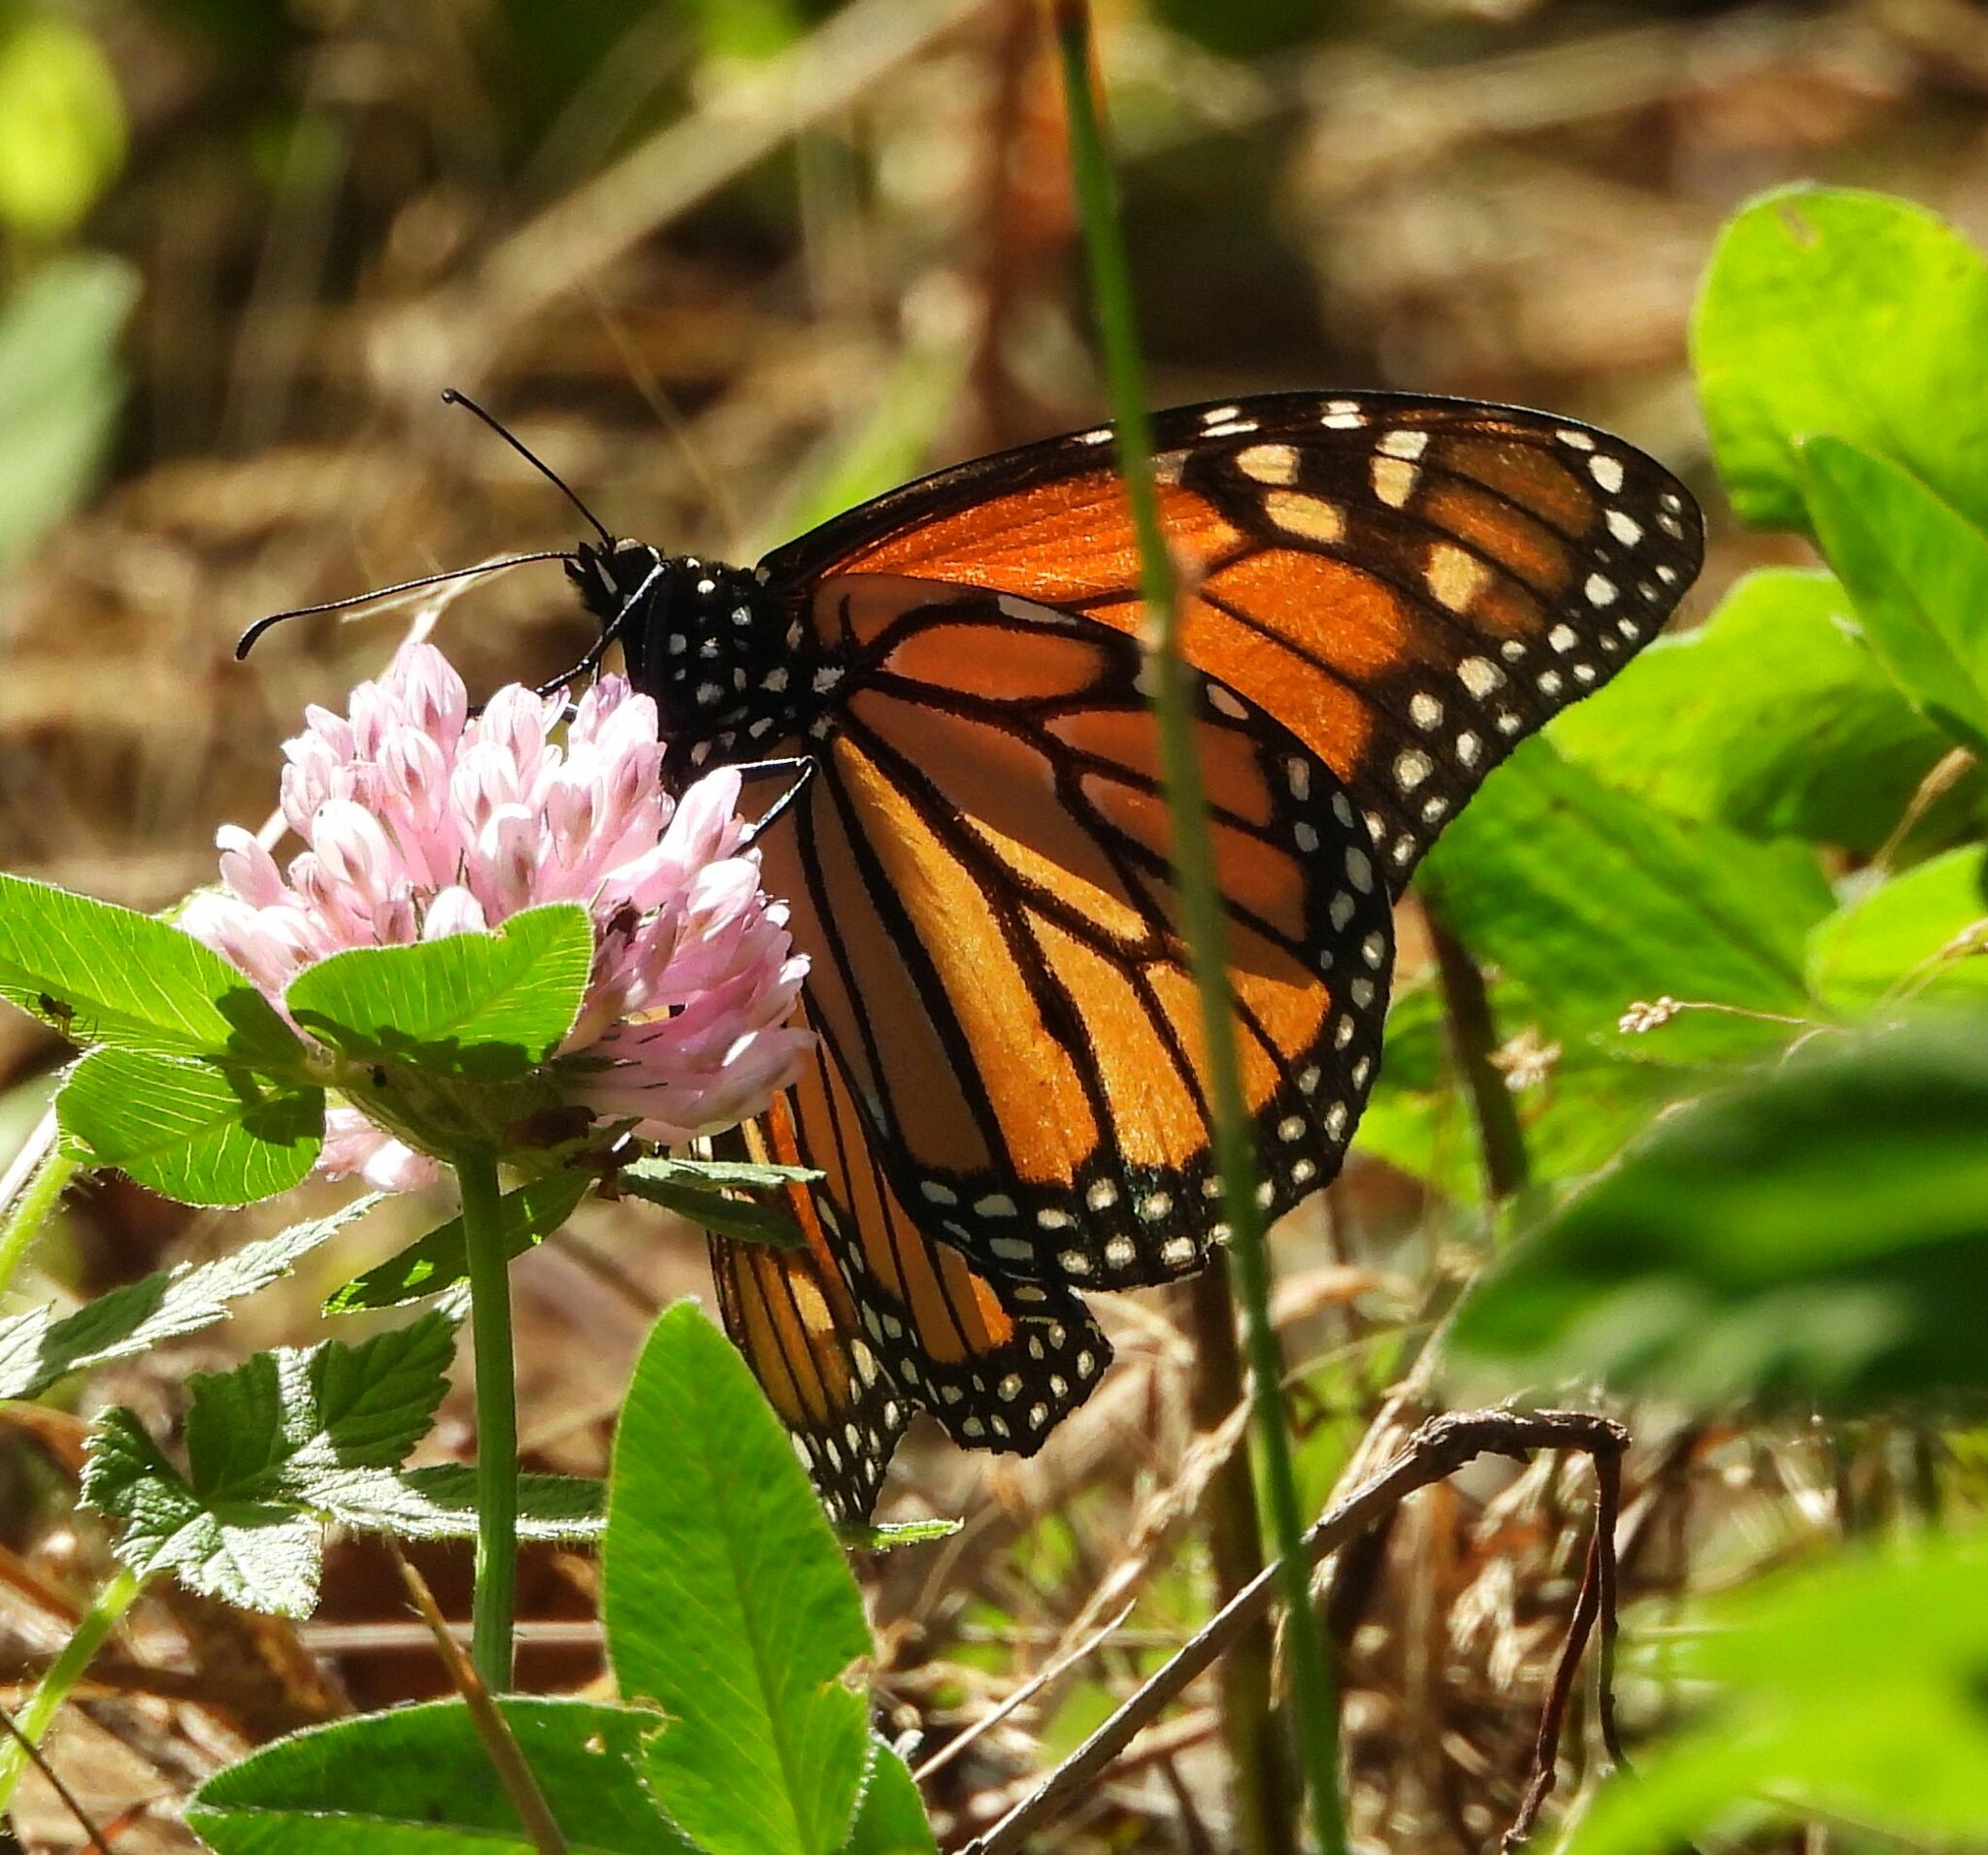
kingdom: Animalia
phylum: Arthropoda
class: Insecta
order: Lepidoptera
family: Nymphalidae
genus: Danaus
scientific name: Danaus plexippus
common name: Monarch
